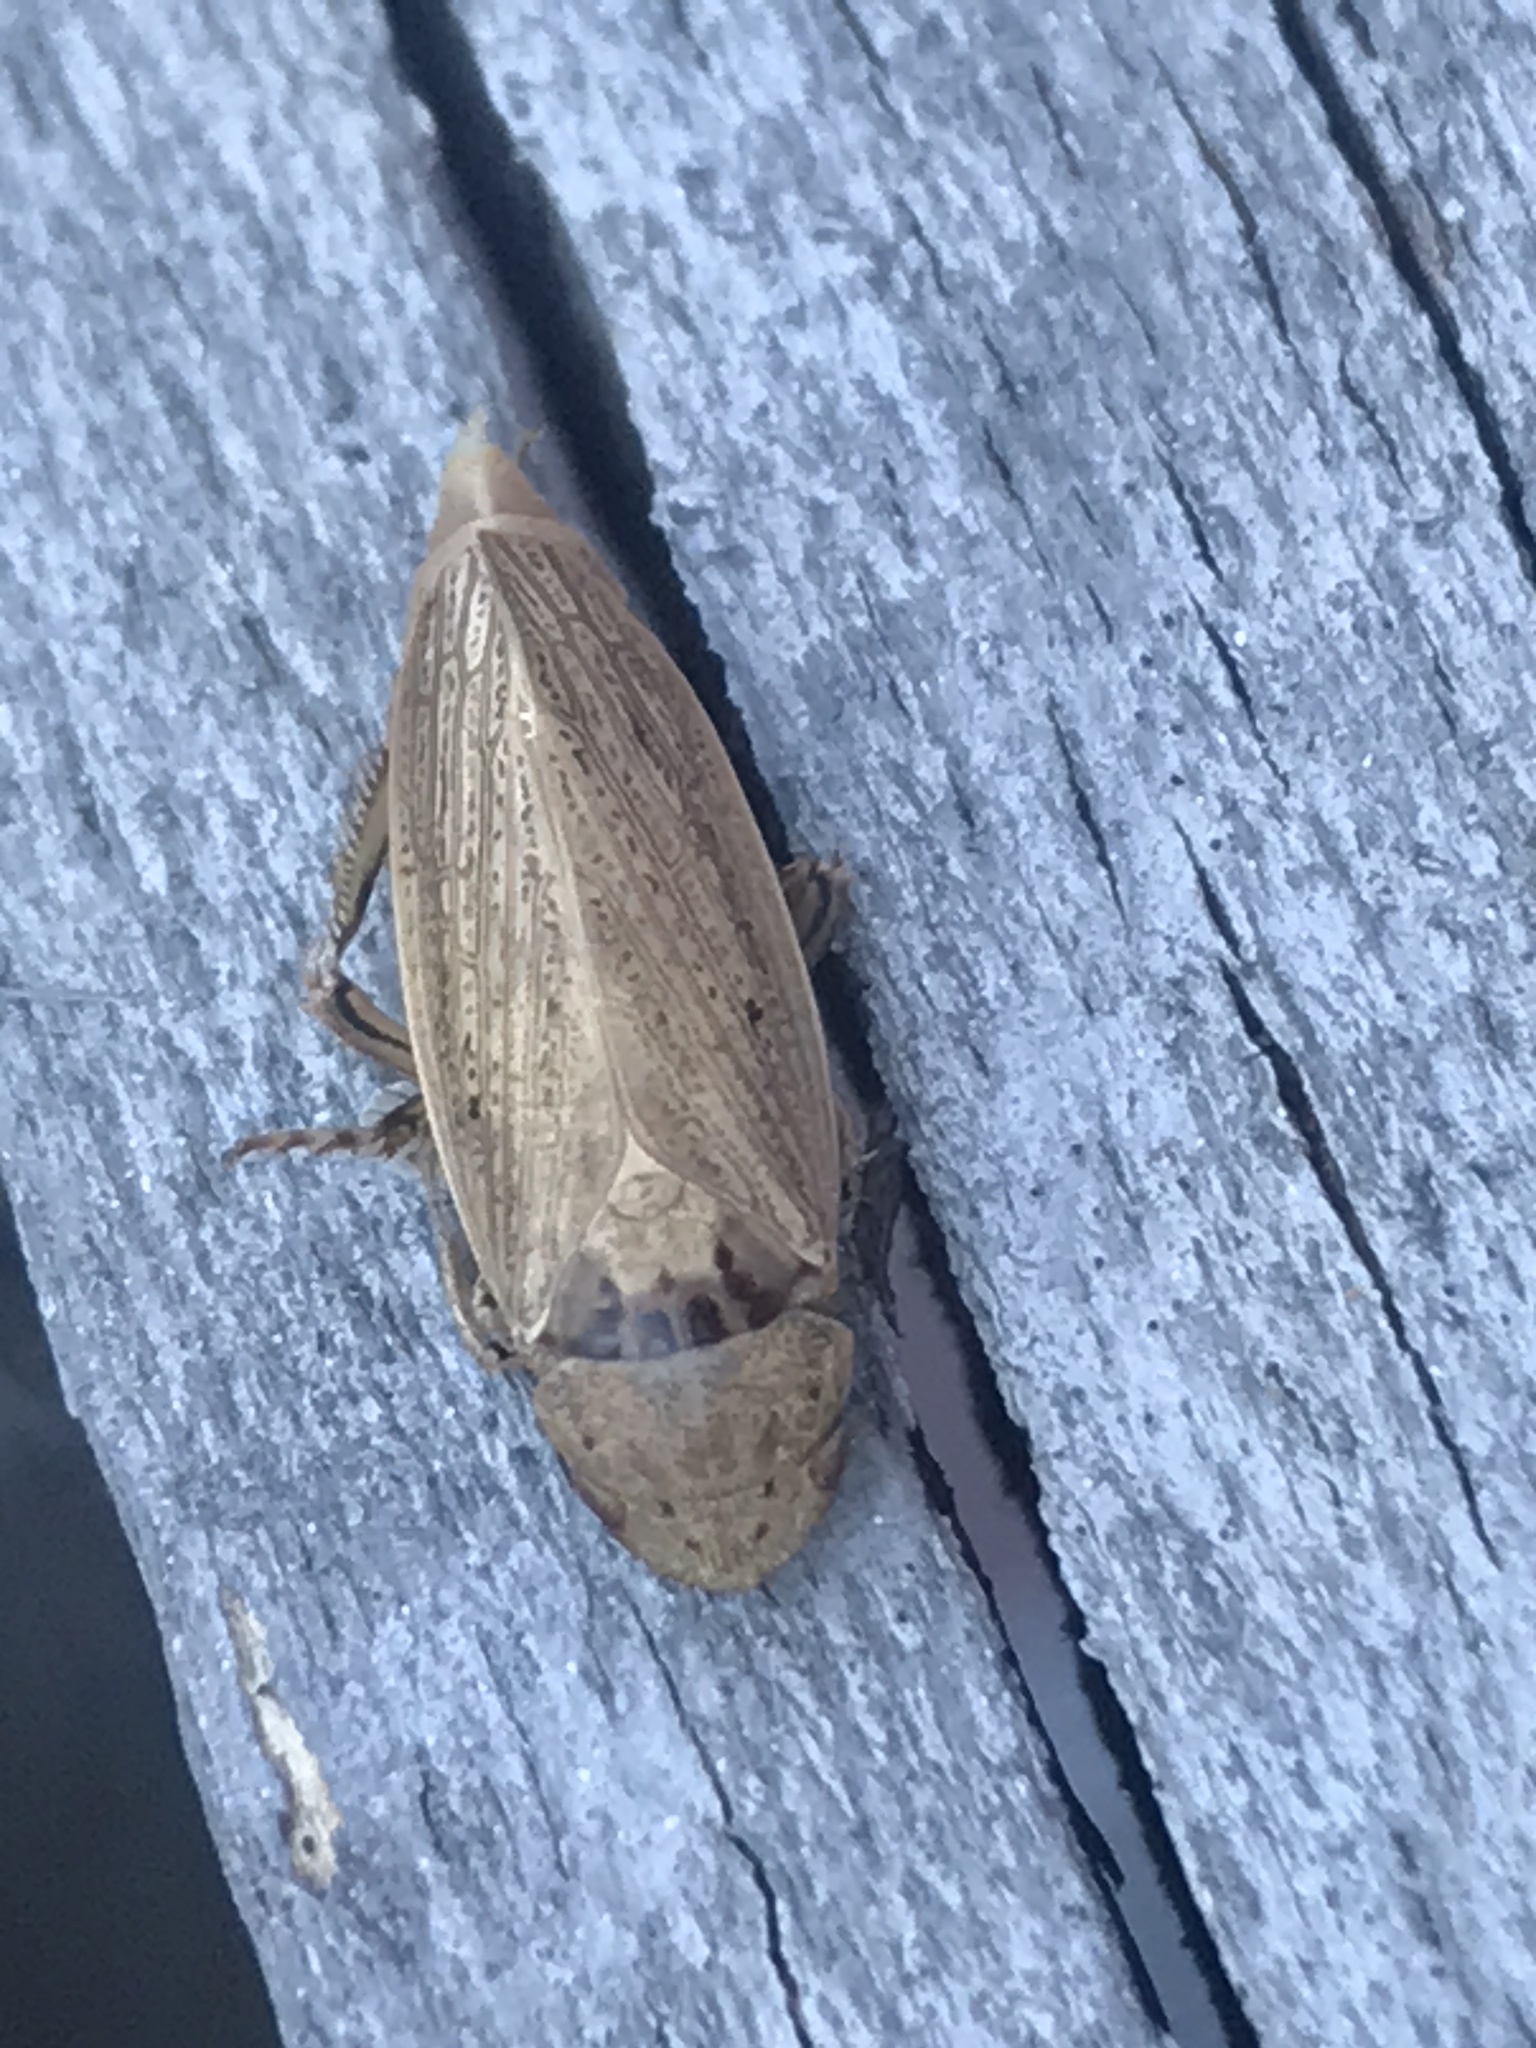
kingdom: Animalia
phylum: Arthropoda
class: Insecta
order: Hemiptera
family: Cicadellidae
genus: Negosiana
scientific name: Negosiana fraterna
